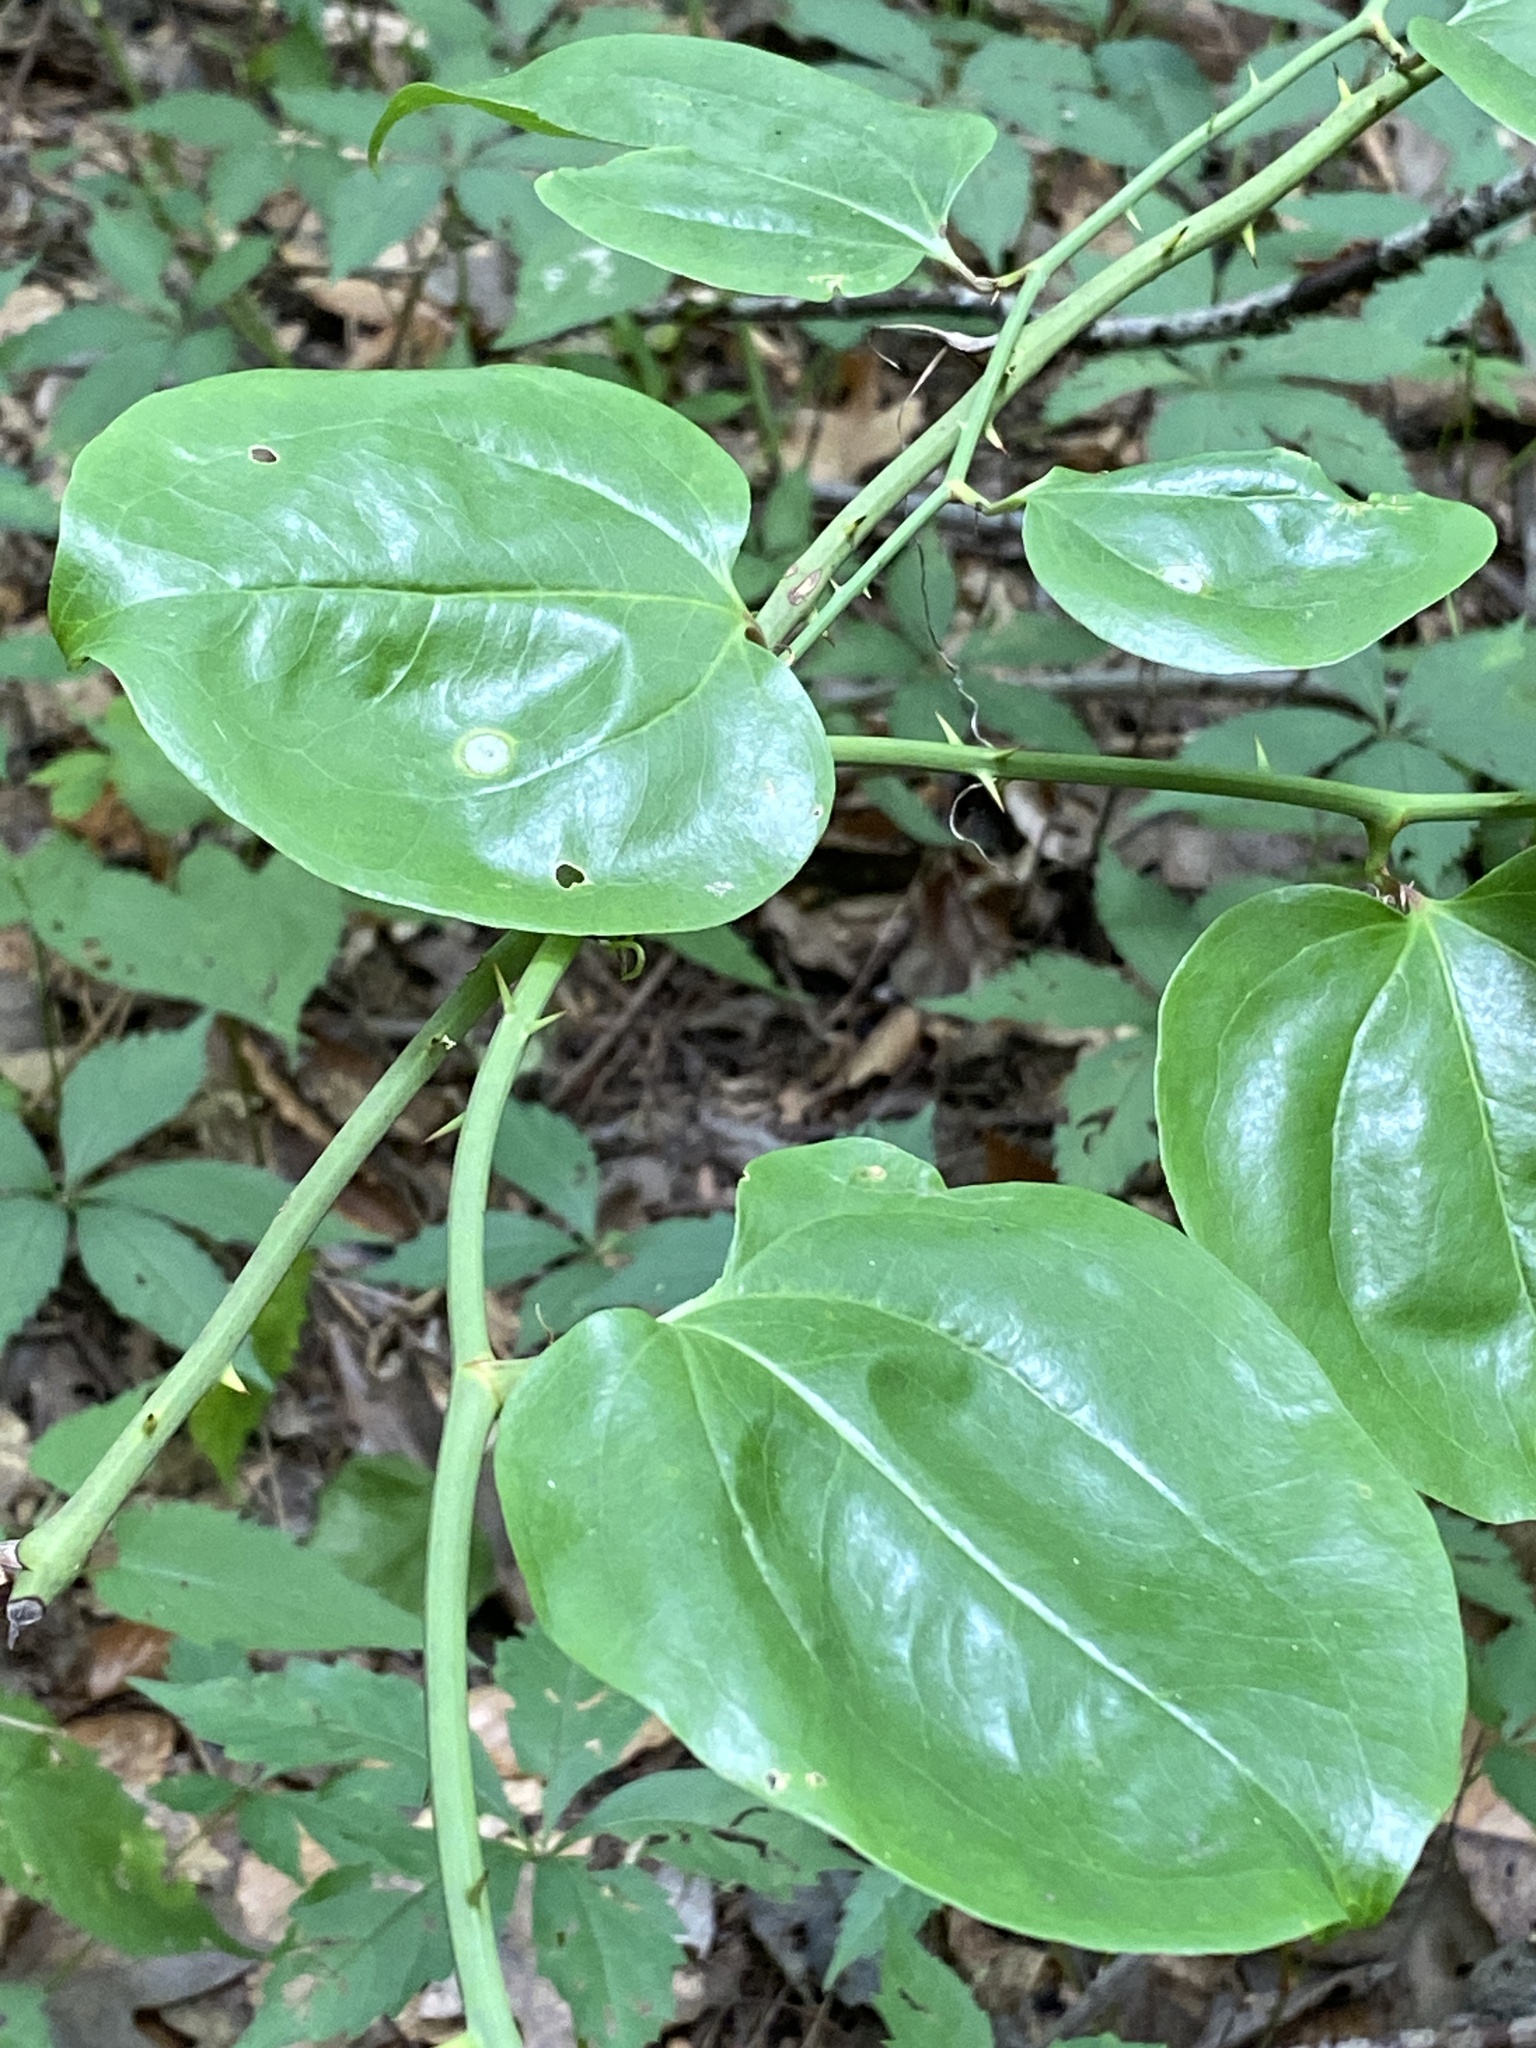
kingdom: Plantae
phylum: Tracheophyta
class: Liliopsida
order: Liliales
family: Smilacaceae
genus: Smilax
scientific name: Smilax rotundifolia
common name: Bullbriar
